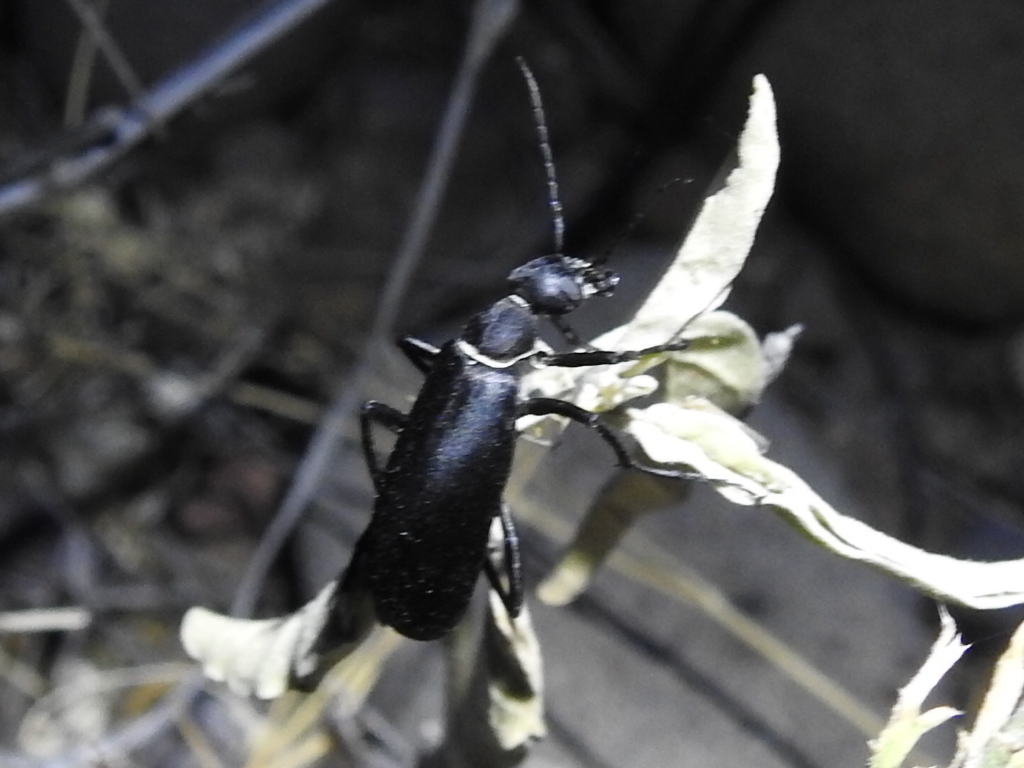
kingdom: Animalia
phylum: Arthropoda
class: Insecta
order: Coleoptera
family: Meloidae
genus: Epicauta
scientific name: Epicauta segmenta
